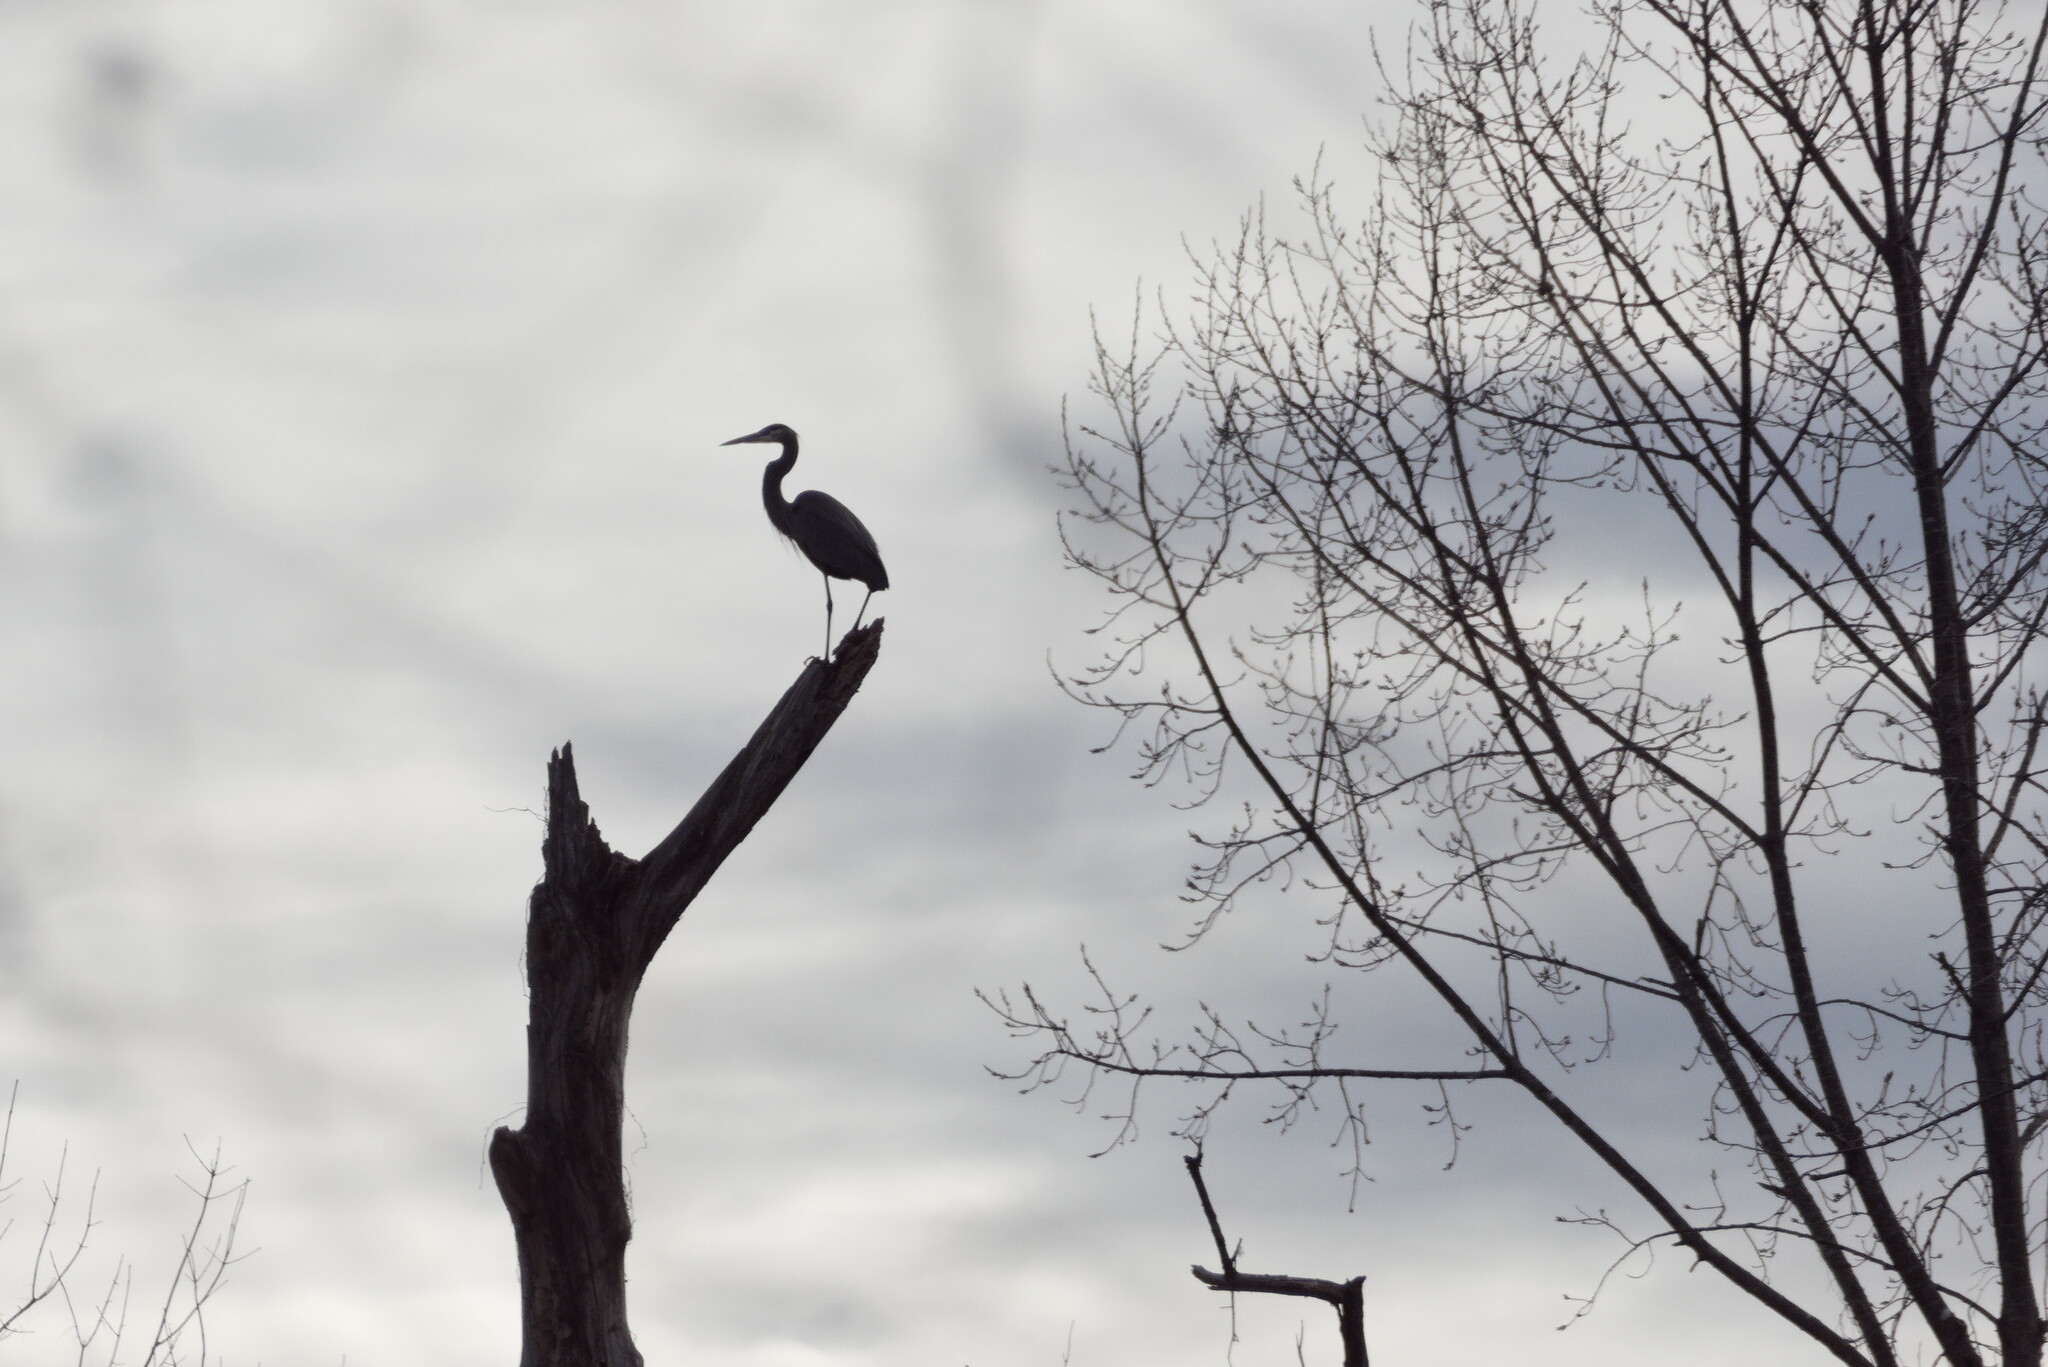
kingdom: Animalia
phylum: Chordata
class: Aves
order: Pelecaniformes
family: Ardeidae
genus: Ardea
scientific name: Ardea herodias
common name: Great blue heron
